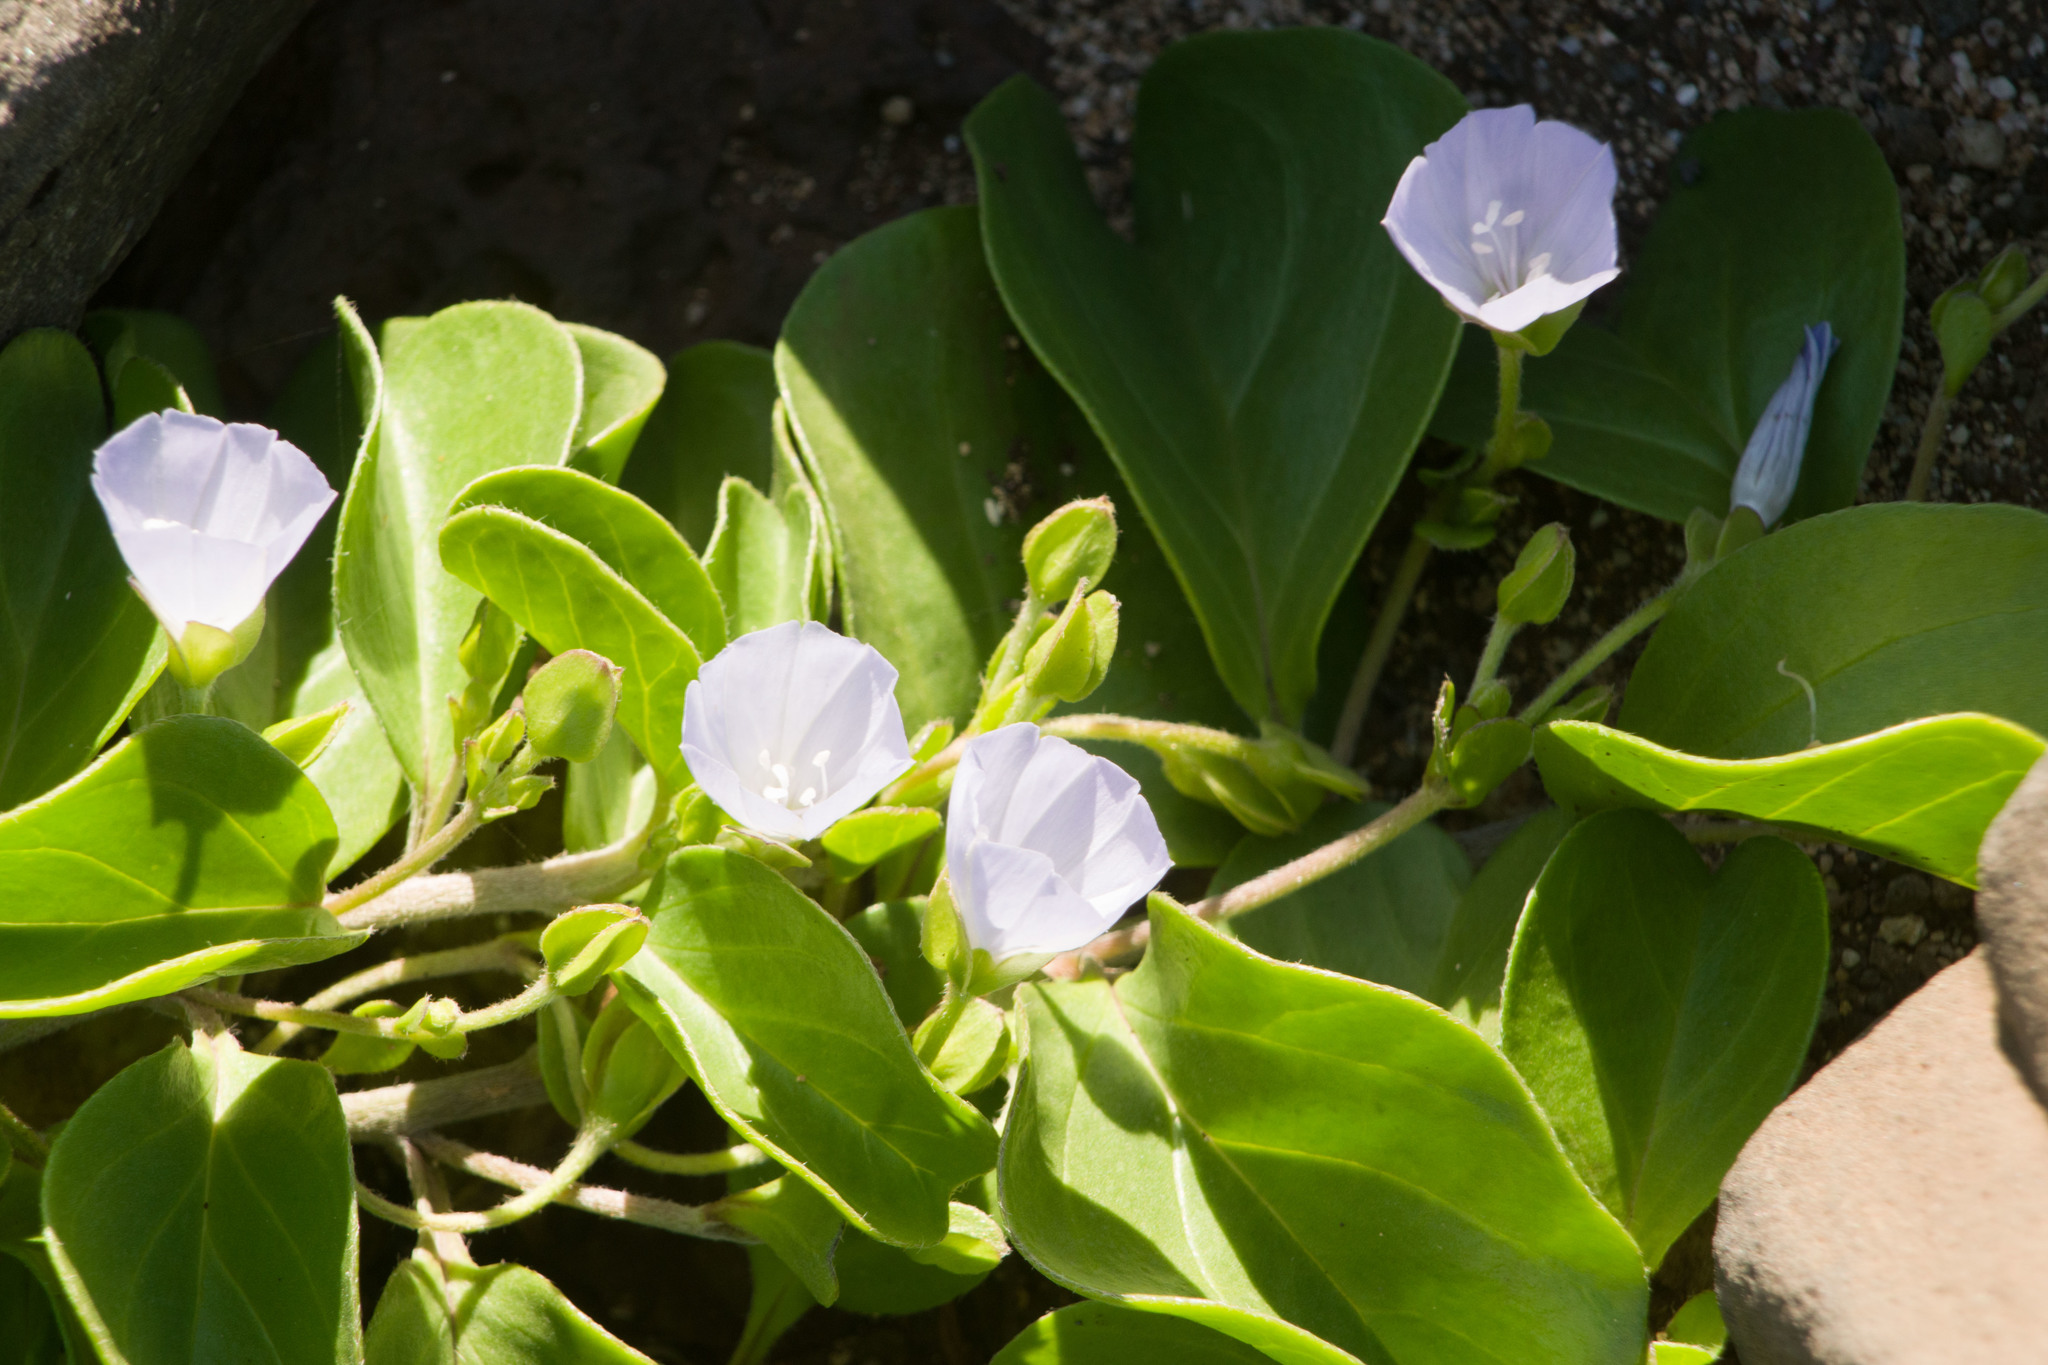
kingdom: Plantae
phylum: Tracheophyta
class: Magnoliopsida
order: Solanales
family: Convolvulaceae
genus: Jacquemontia
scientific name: Jacquemontia sandwicensis
